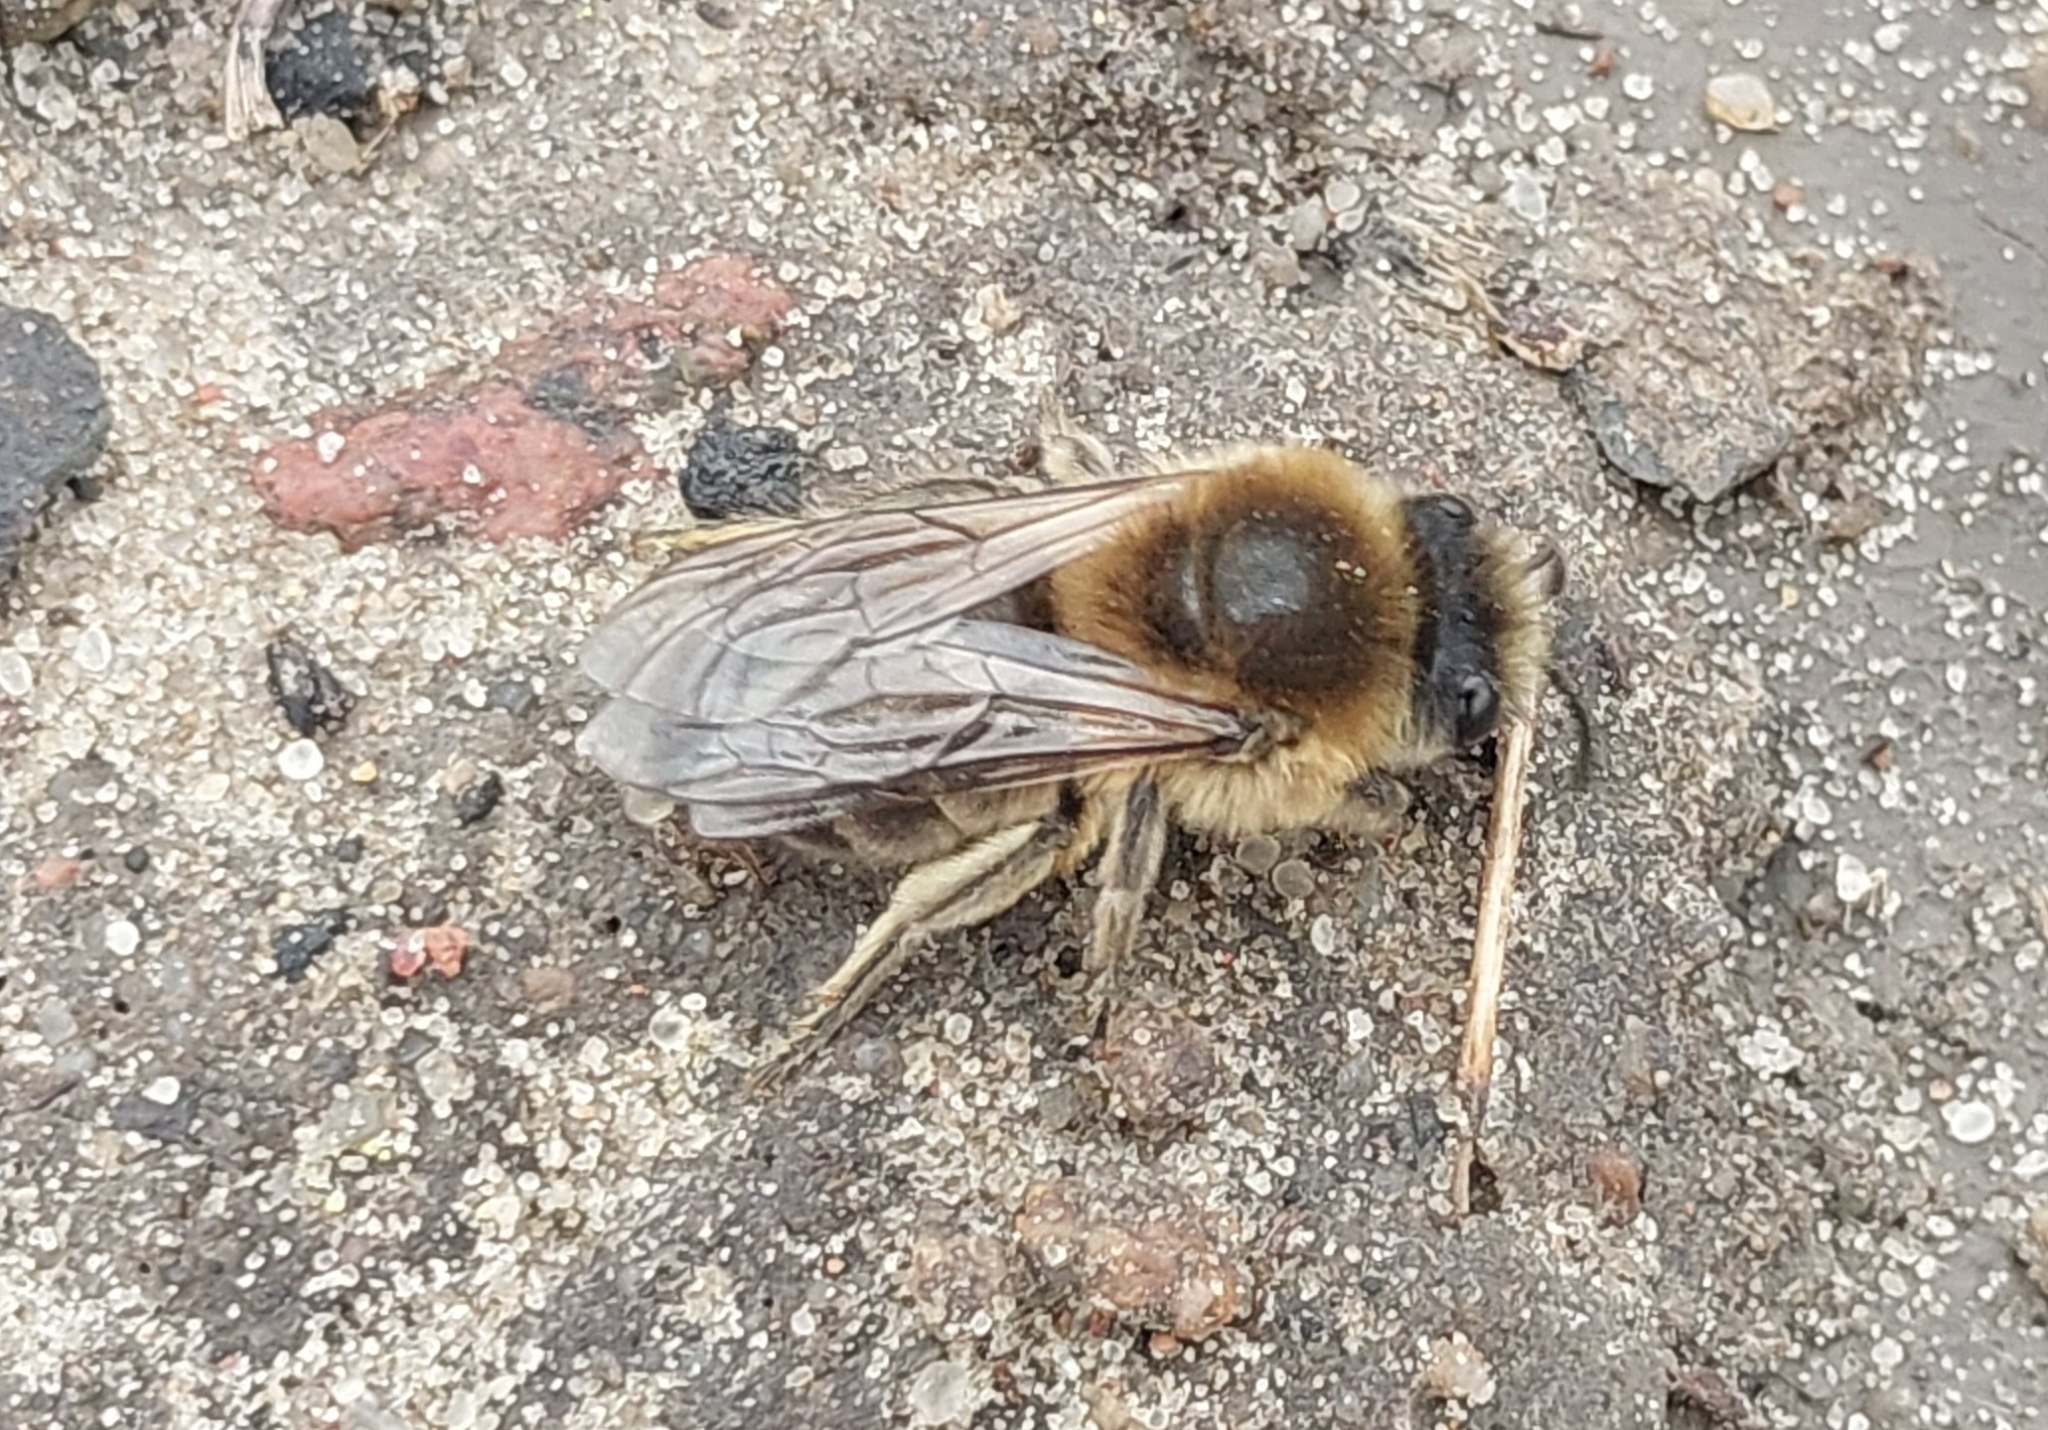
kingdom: Animalia
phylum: Arthropoda
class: Insecta
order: Hymenoptera
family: Colletidae
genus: Colletes
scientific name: Colletes cunicularius
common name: Early colletes
